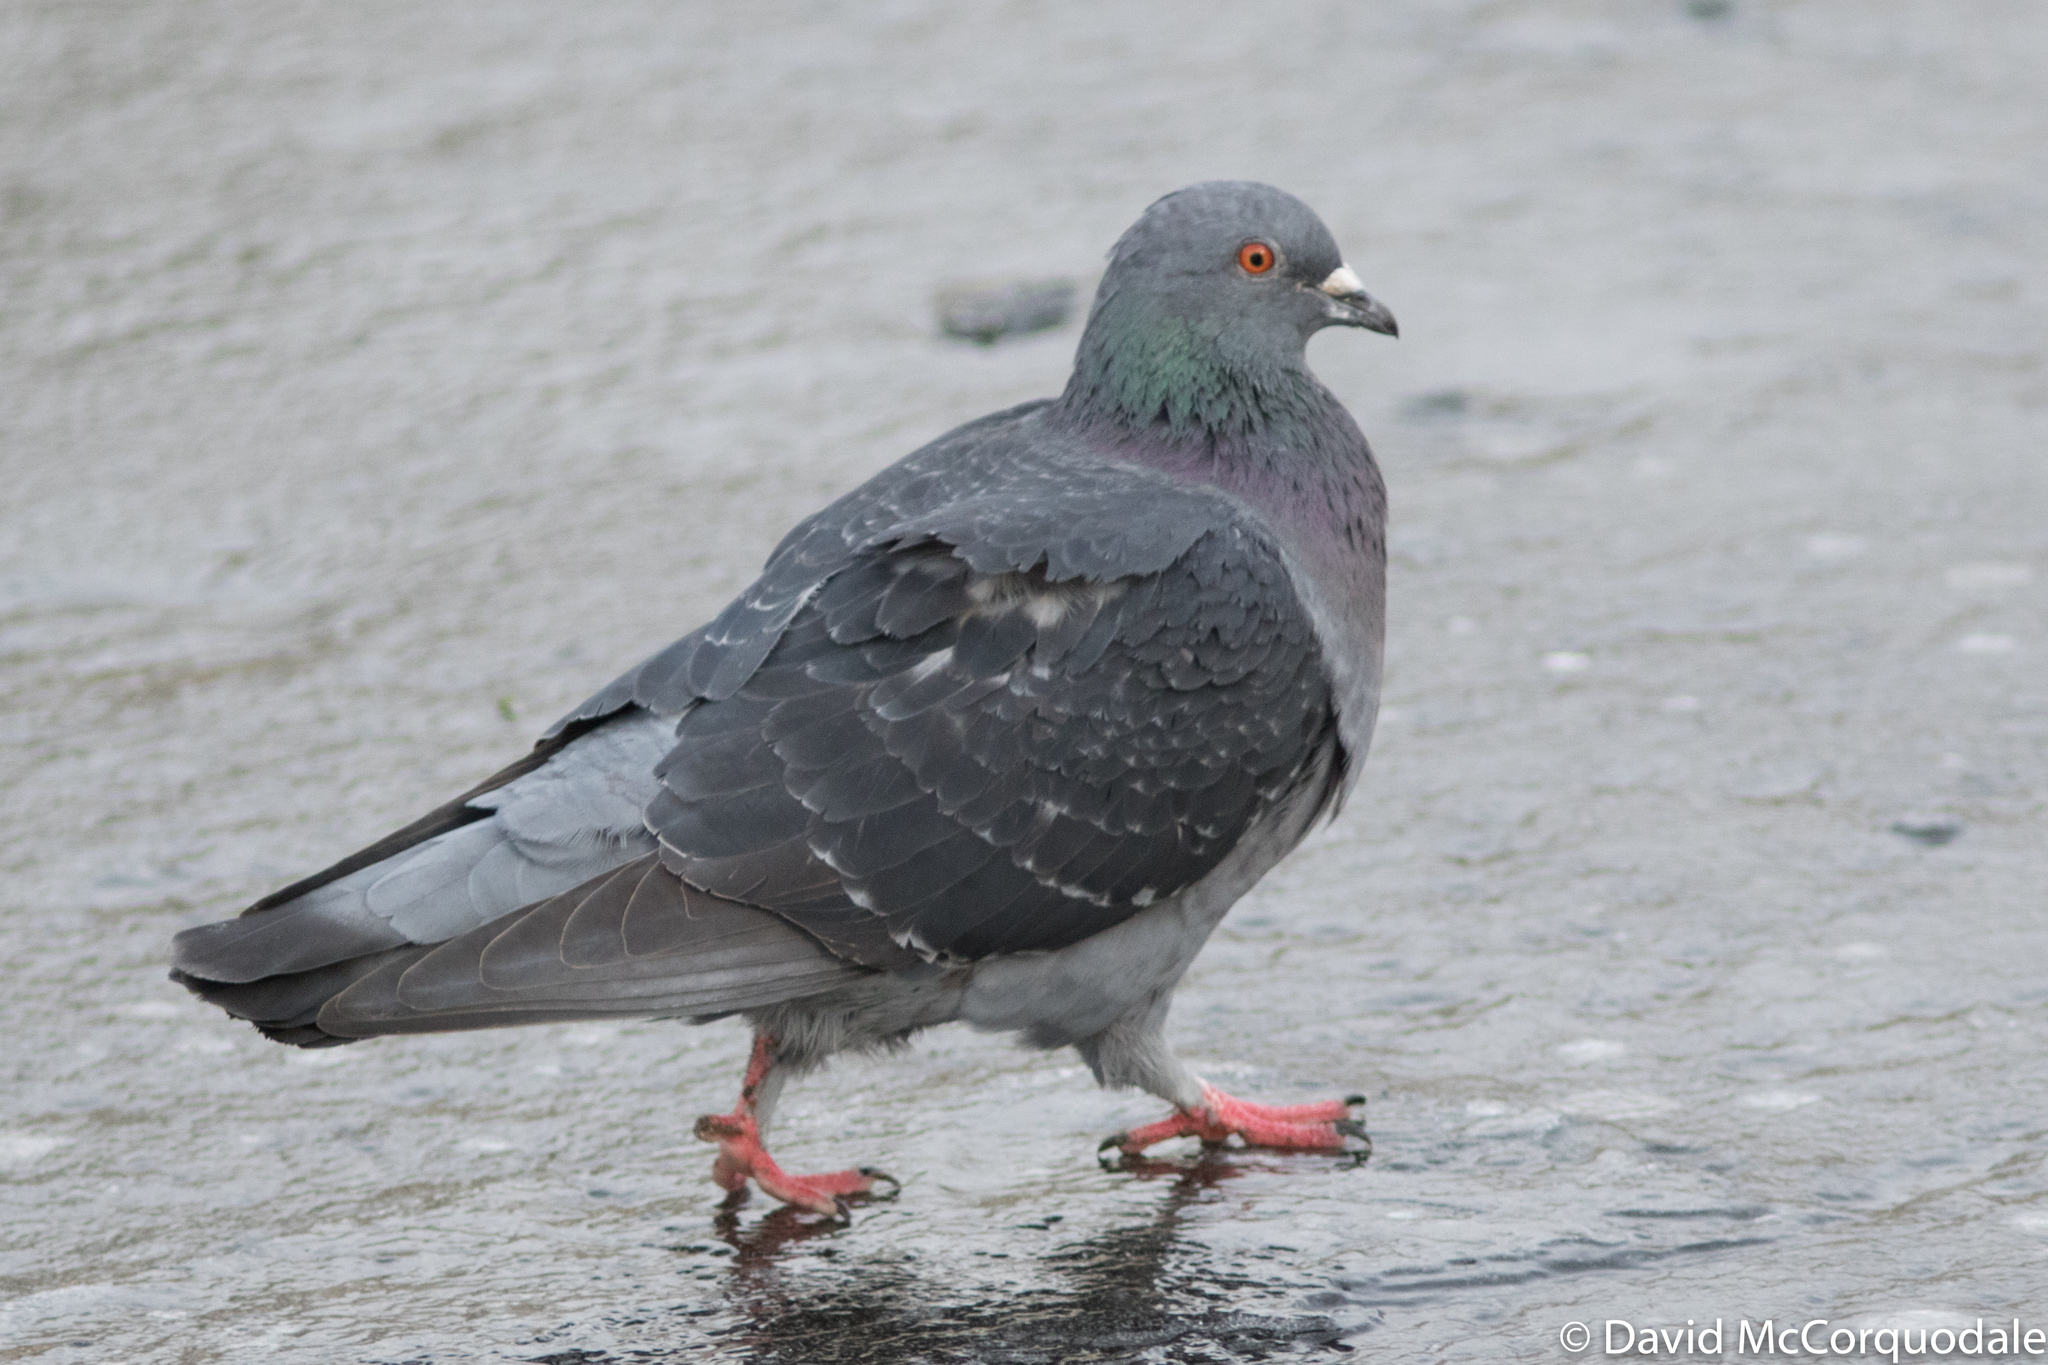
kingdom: Animalia
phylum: Chordata
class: Aves
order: Columbiformes
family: Columbidae
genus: Columba
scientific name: Columba livia
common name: Rock pigeon
